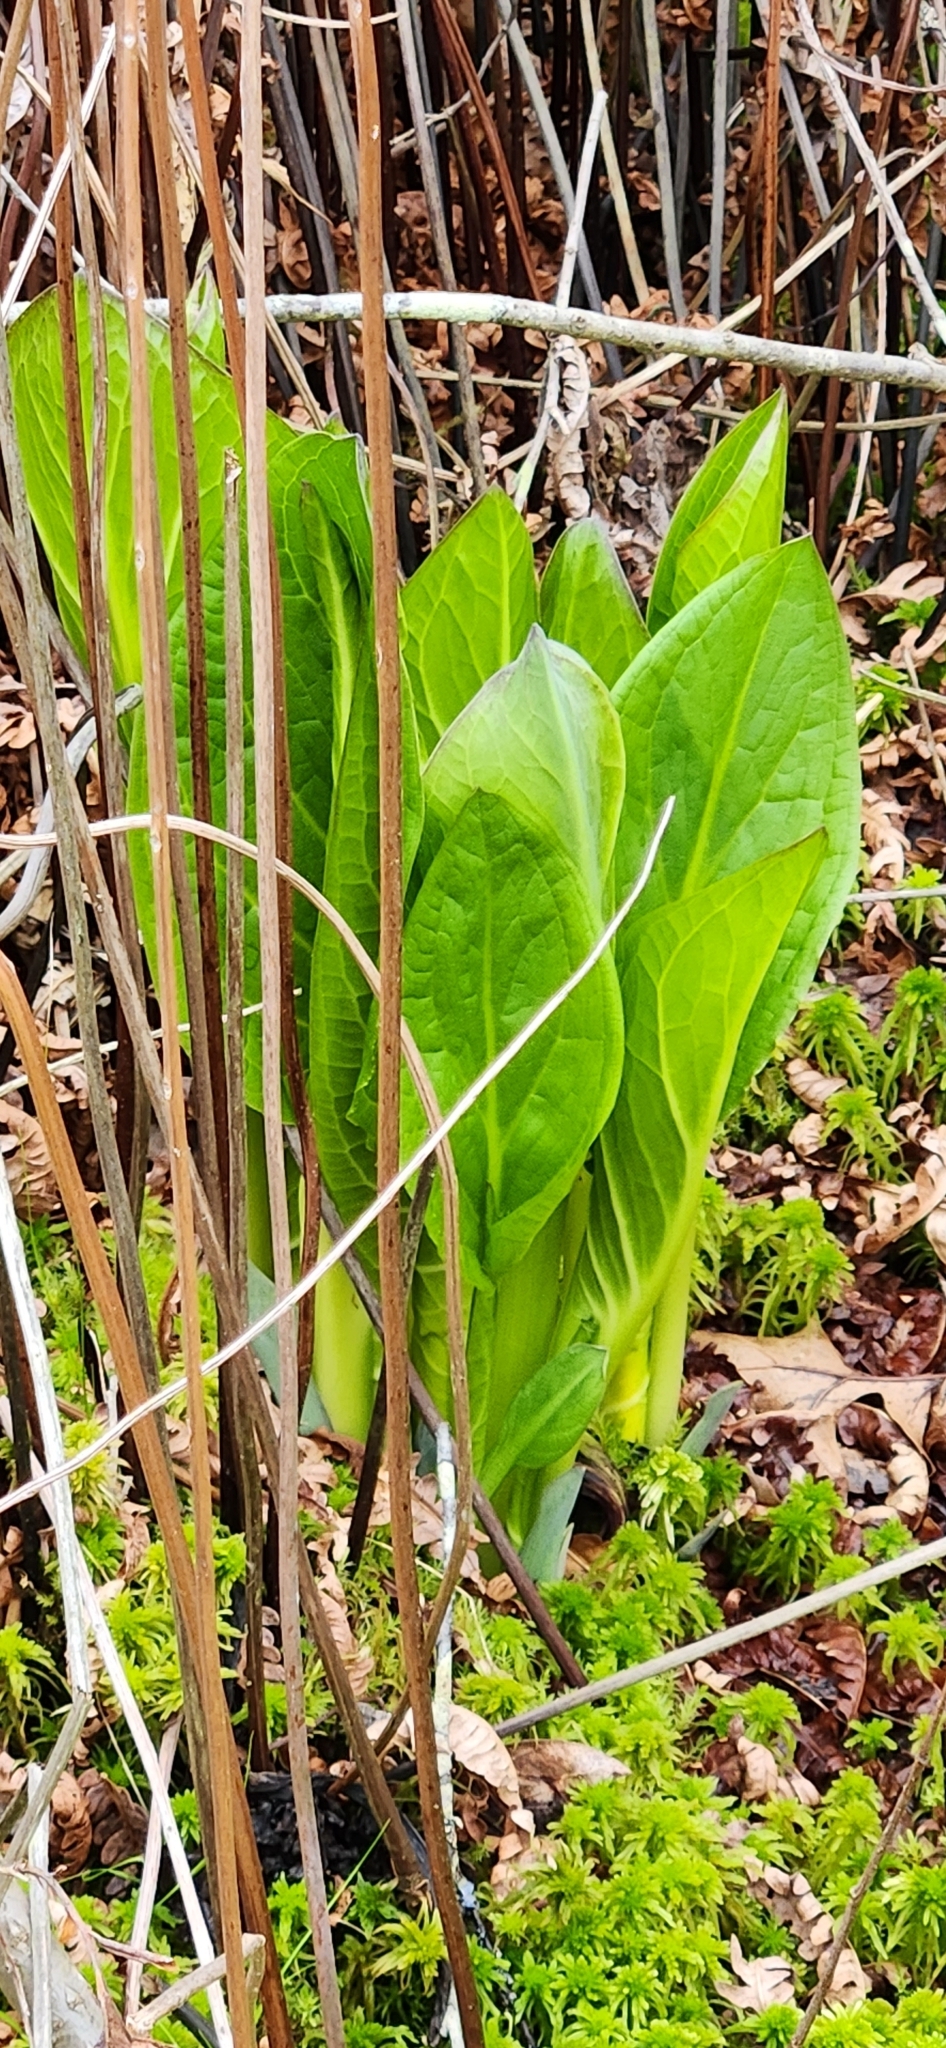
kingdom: Plantae
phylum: Tracheophyta
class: Liliopsida
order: Alismatales
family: Araceae
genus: Symplocarpus
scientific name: Symplocarpus foetidus
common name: Eastern skunk cabbage
